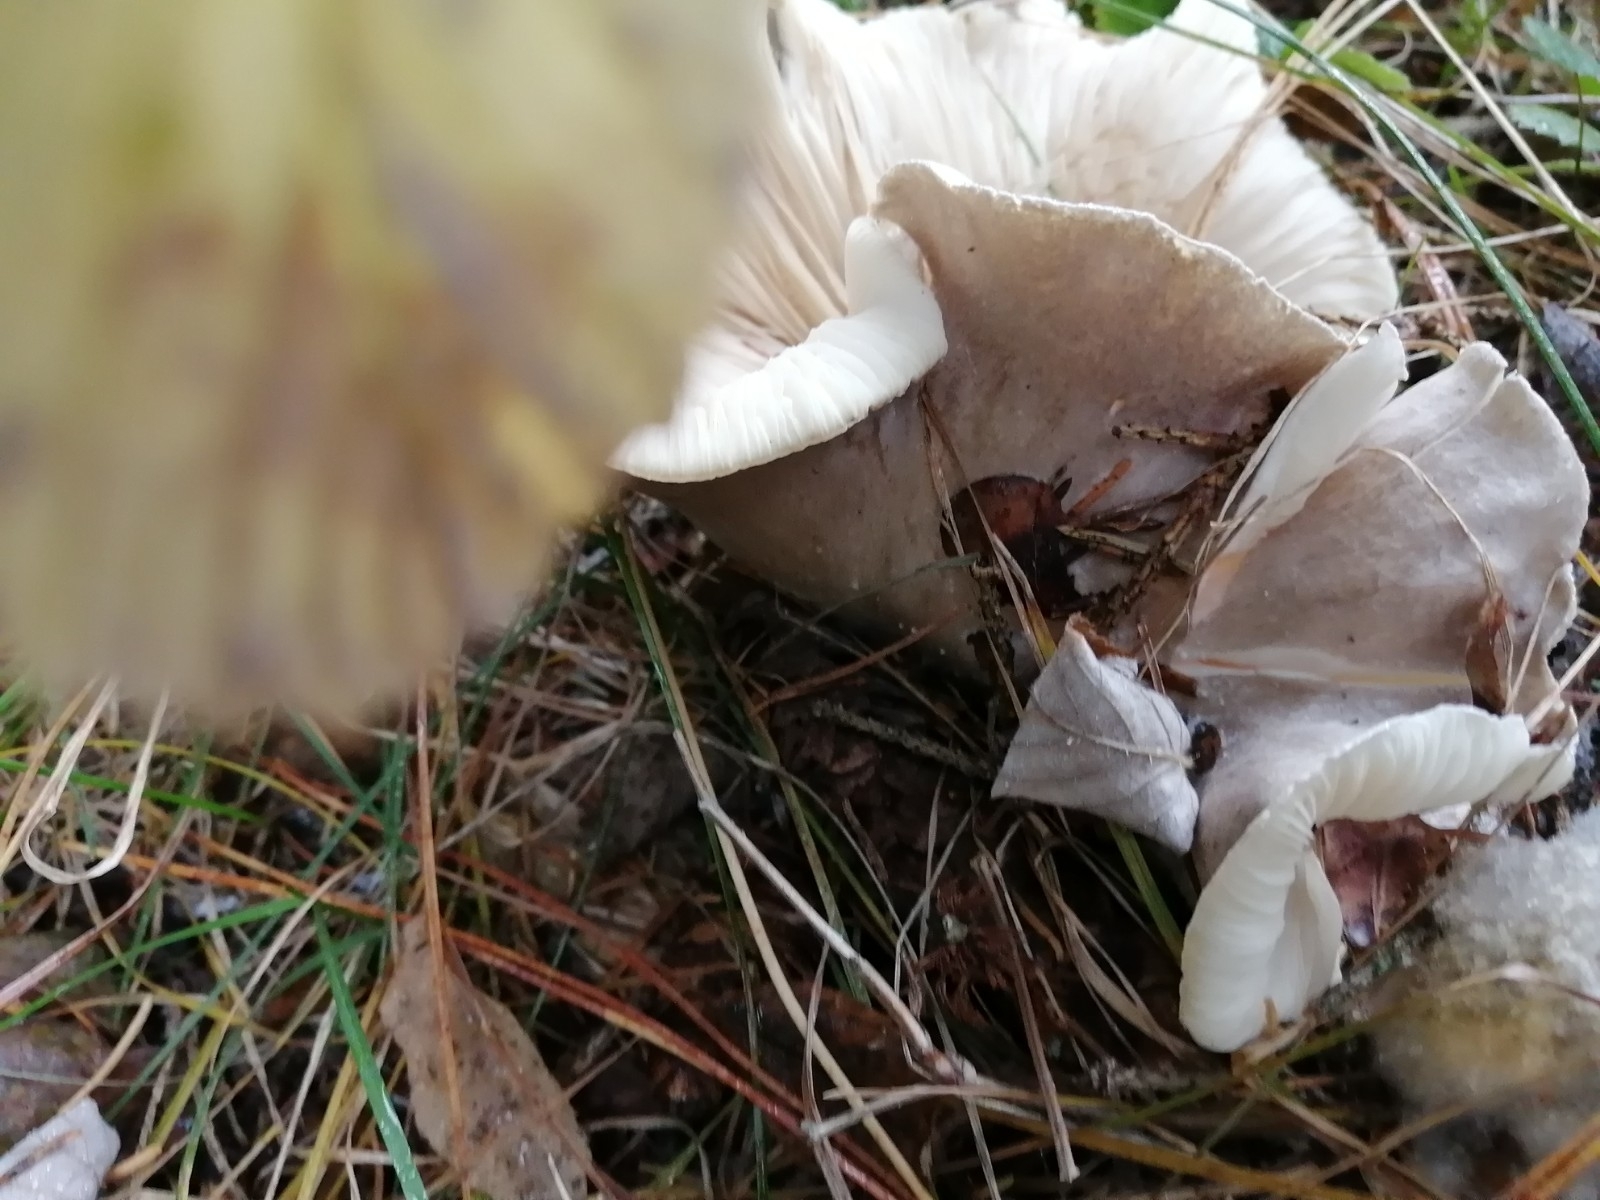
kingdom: Fungi
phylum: Basidiomycota
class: Agaricomycetes
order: Agaricales
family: Tricholomataceae
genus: Clitocybe
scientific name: Clitocybe nebularis
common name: Clouded agaric
